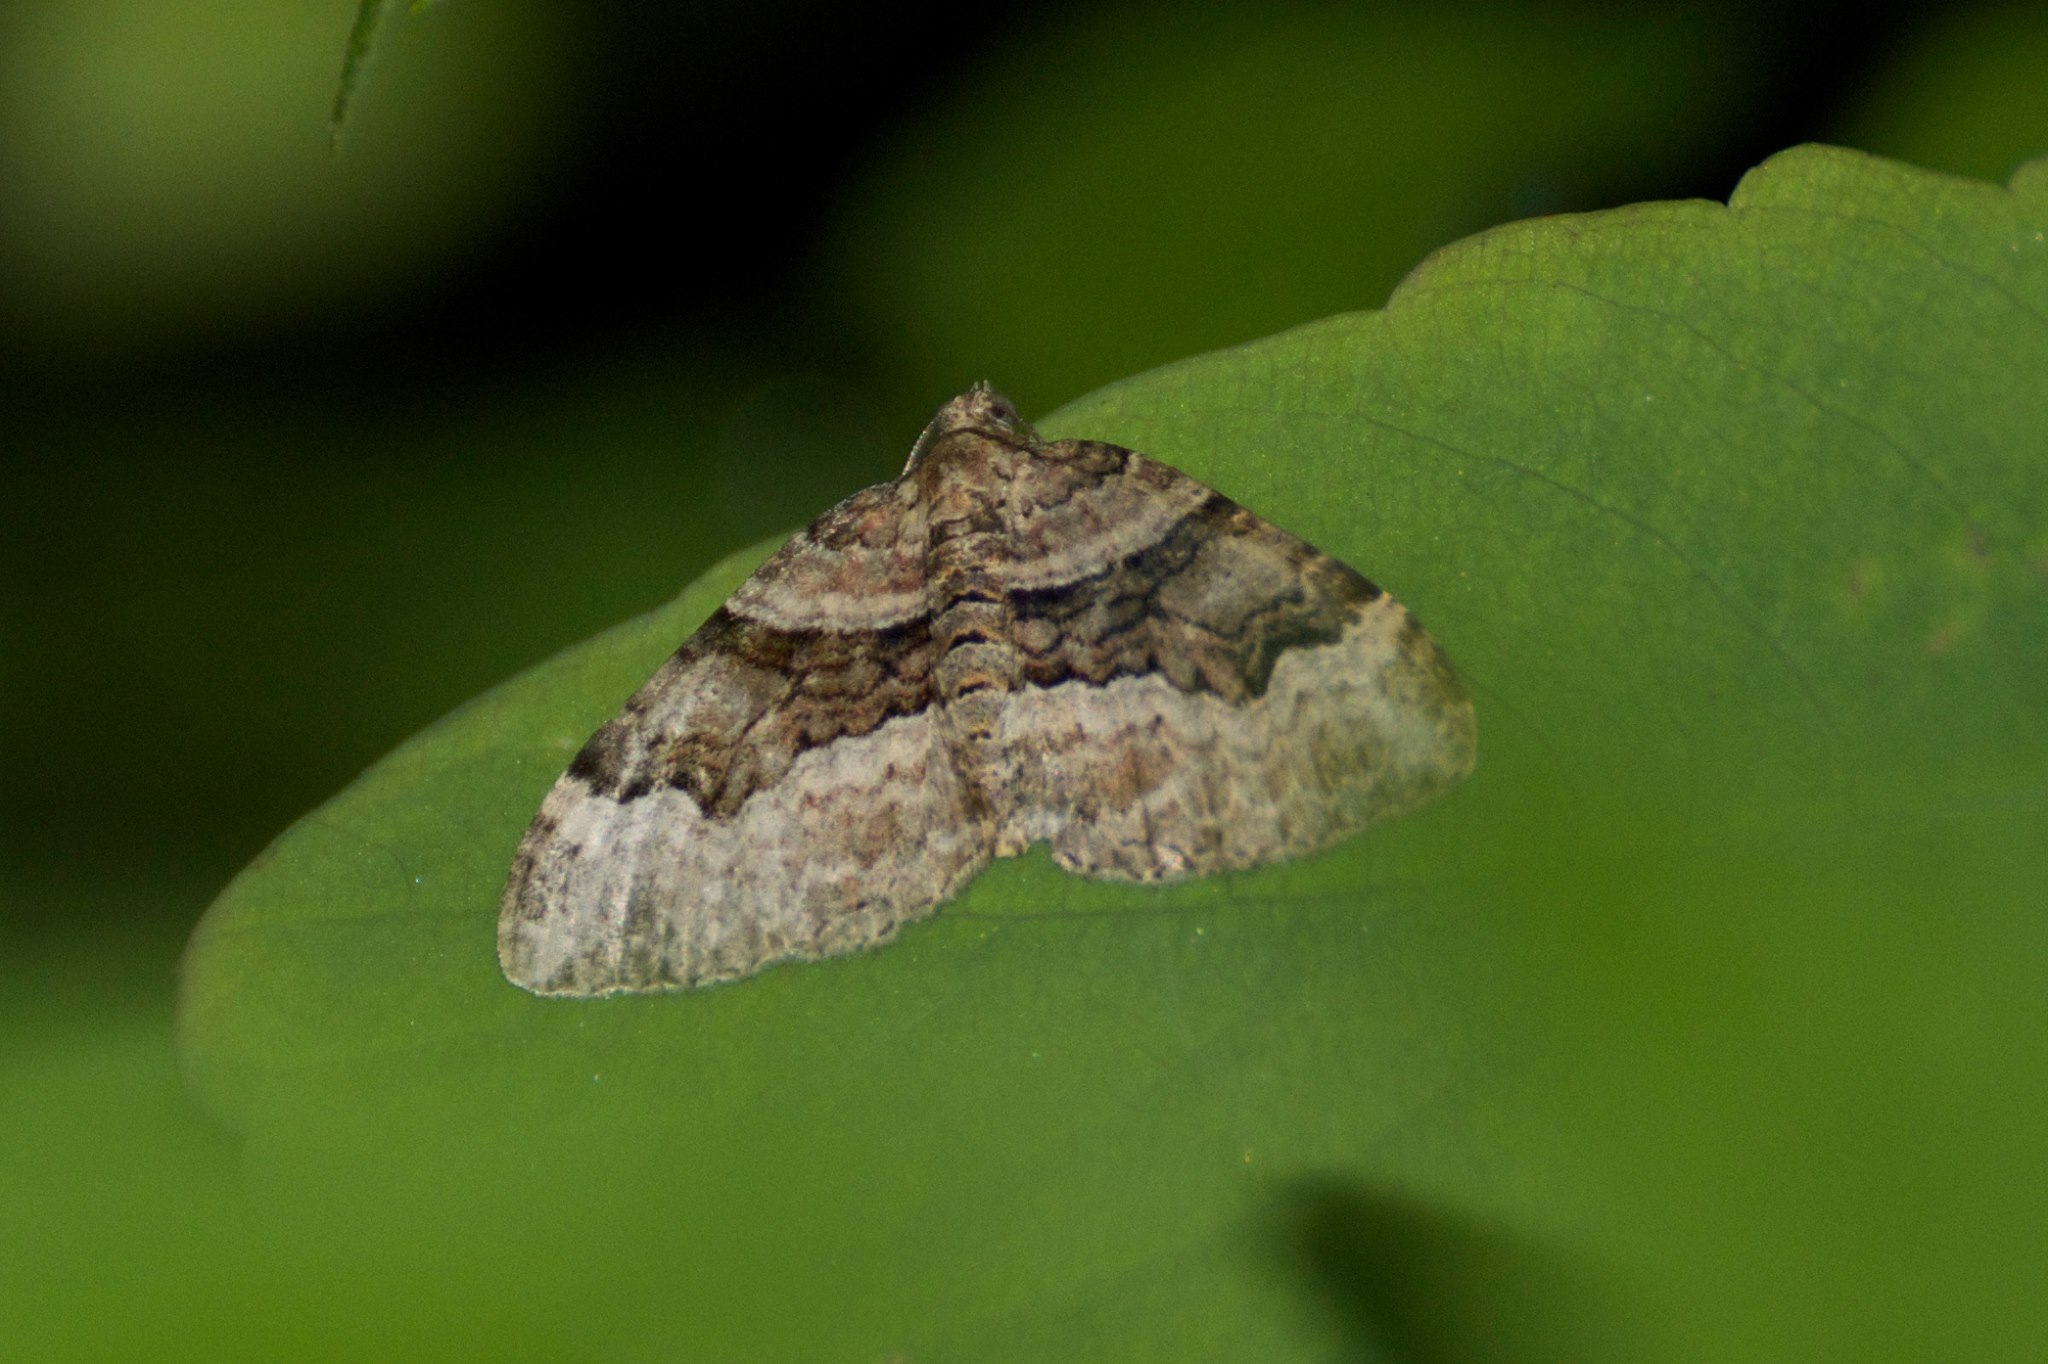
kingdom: Animalia
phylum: Arthropoda
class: Insecta
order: Lepidoptera
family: Geometridae
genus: Xanthorhoe
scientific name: Xanthorhoe lacustrata
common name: Toothed brown carpet
